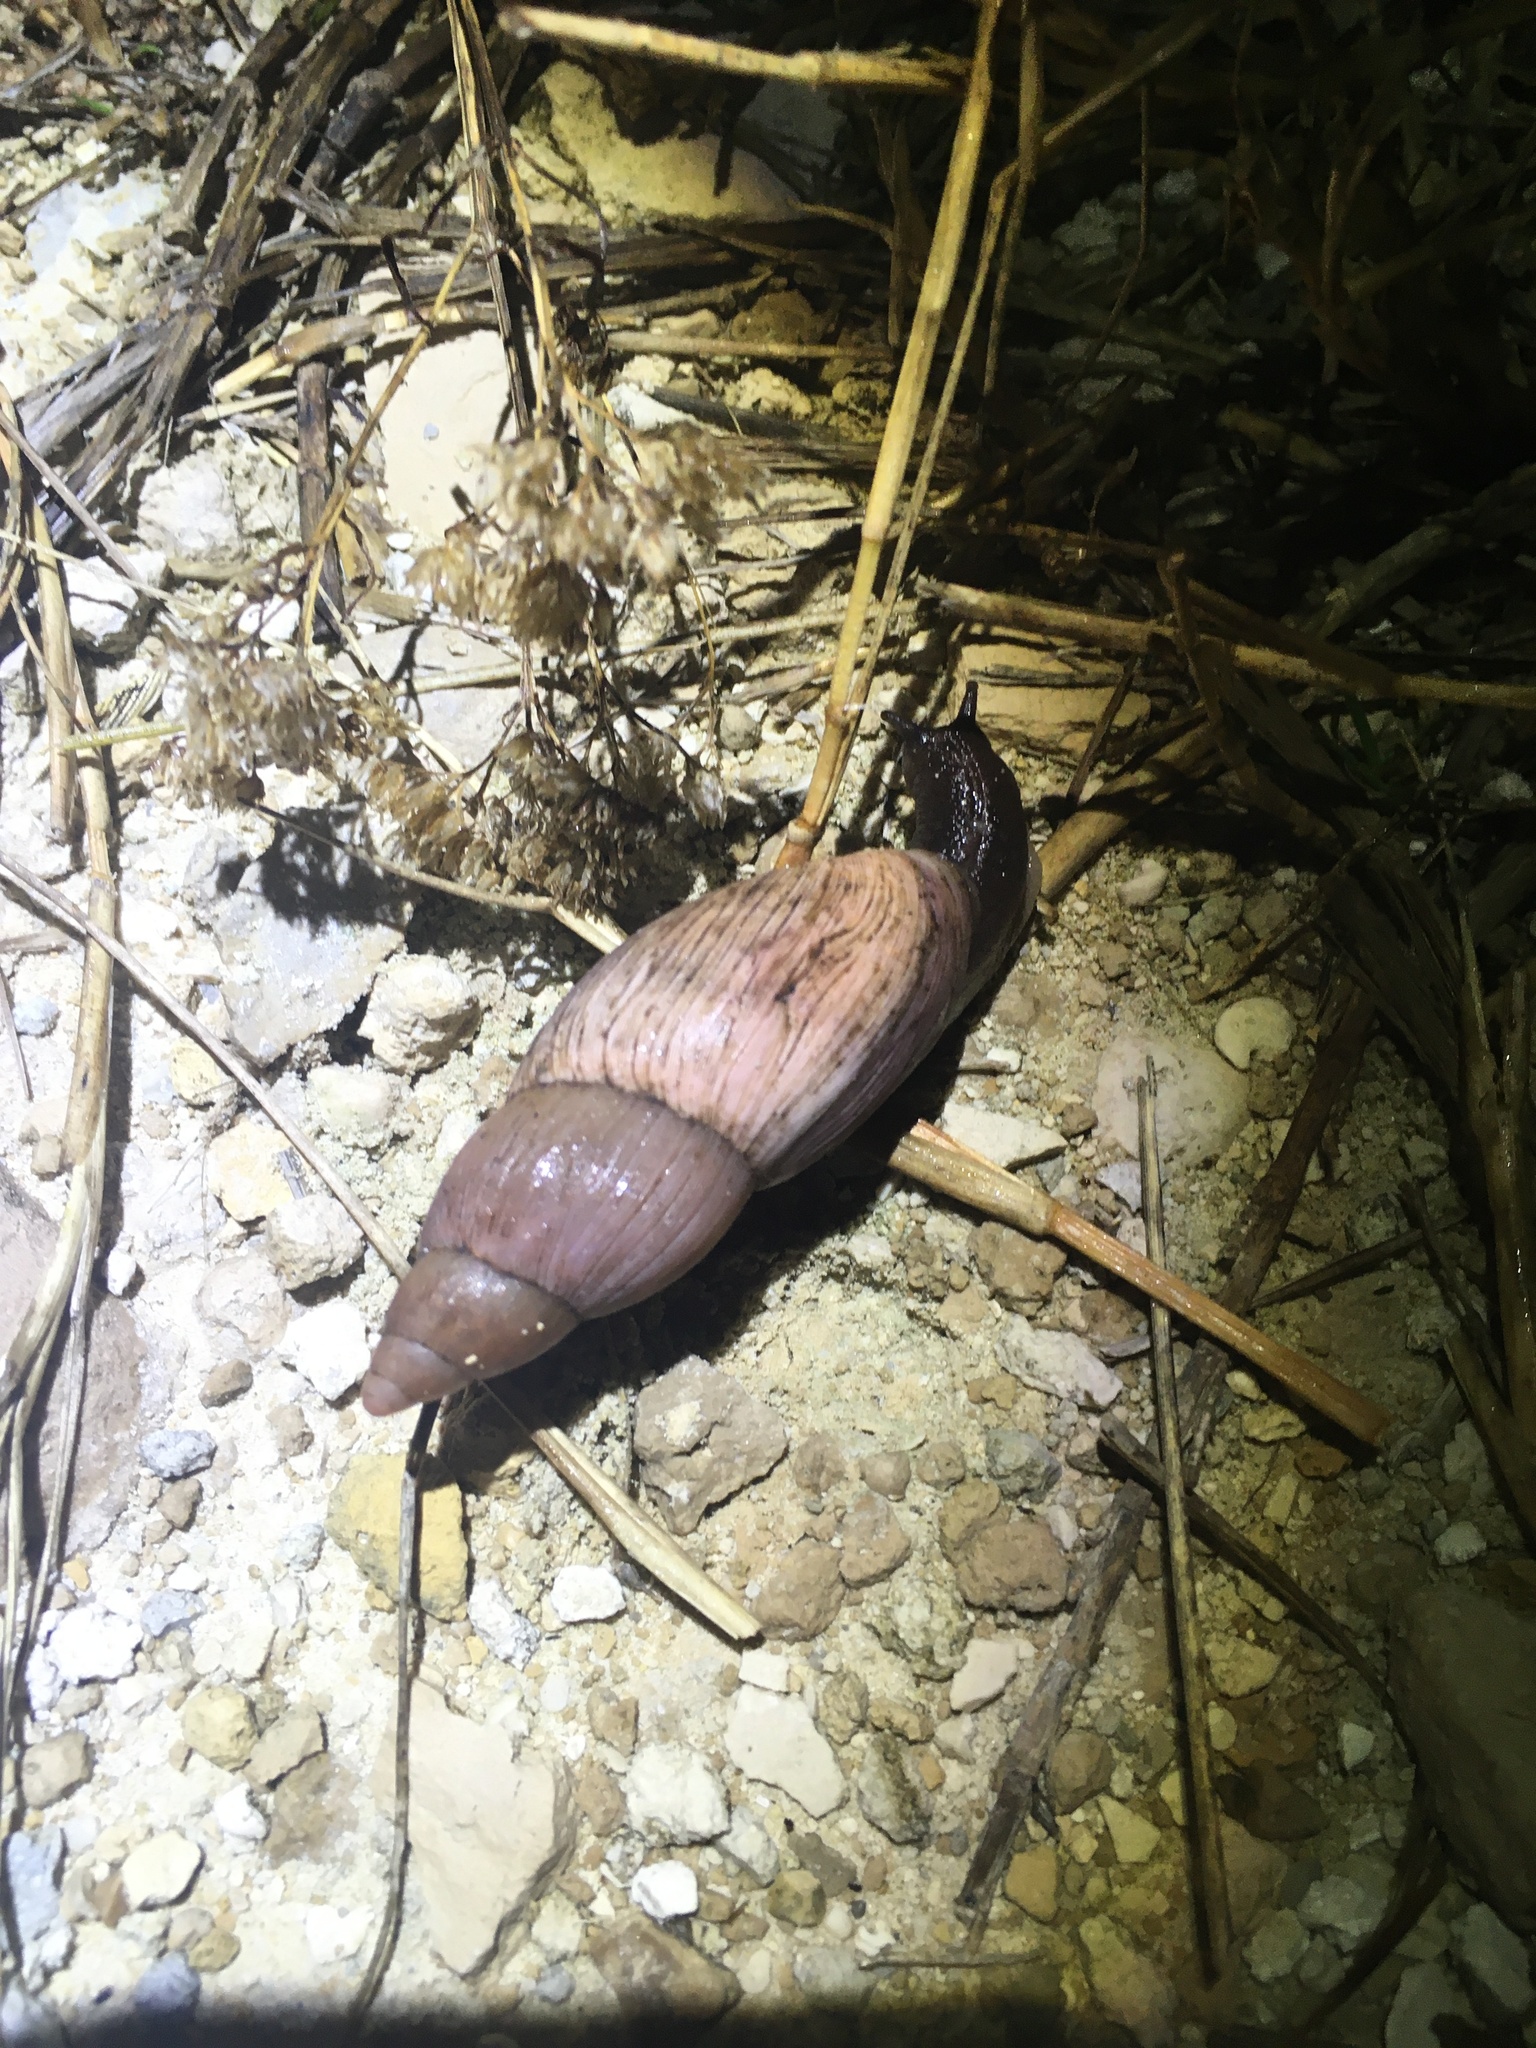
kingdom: Animalia
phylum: Mollusca
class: Gastropoda
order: Stylommatophora
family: Spiraxidae
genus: Euglandina
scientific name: Euglandina rosea
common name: Rosy wolfsnail
